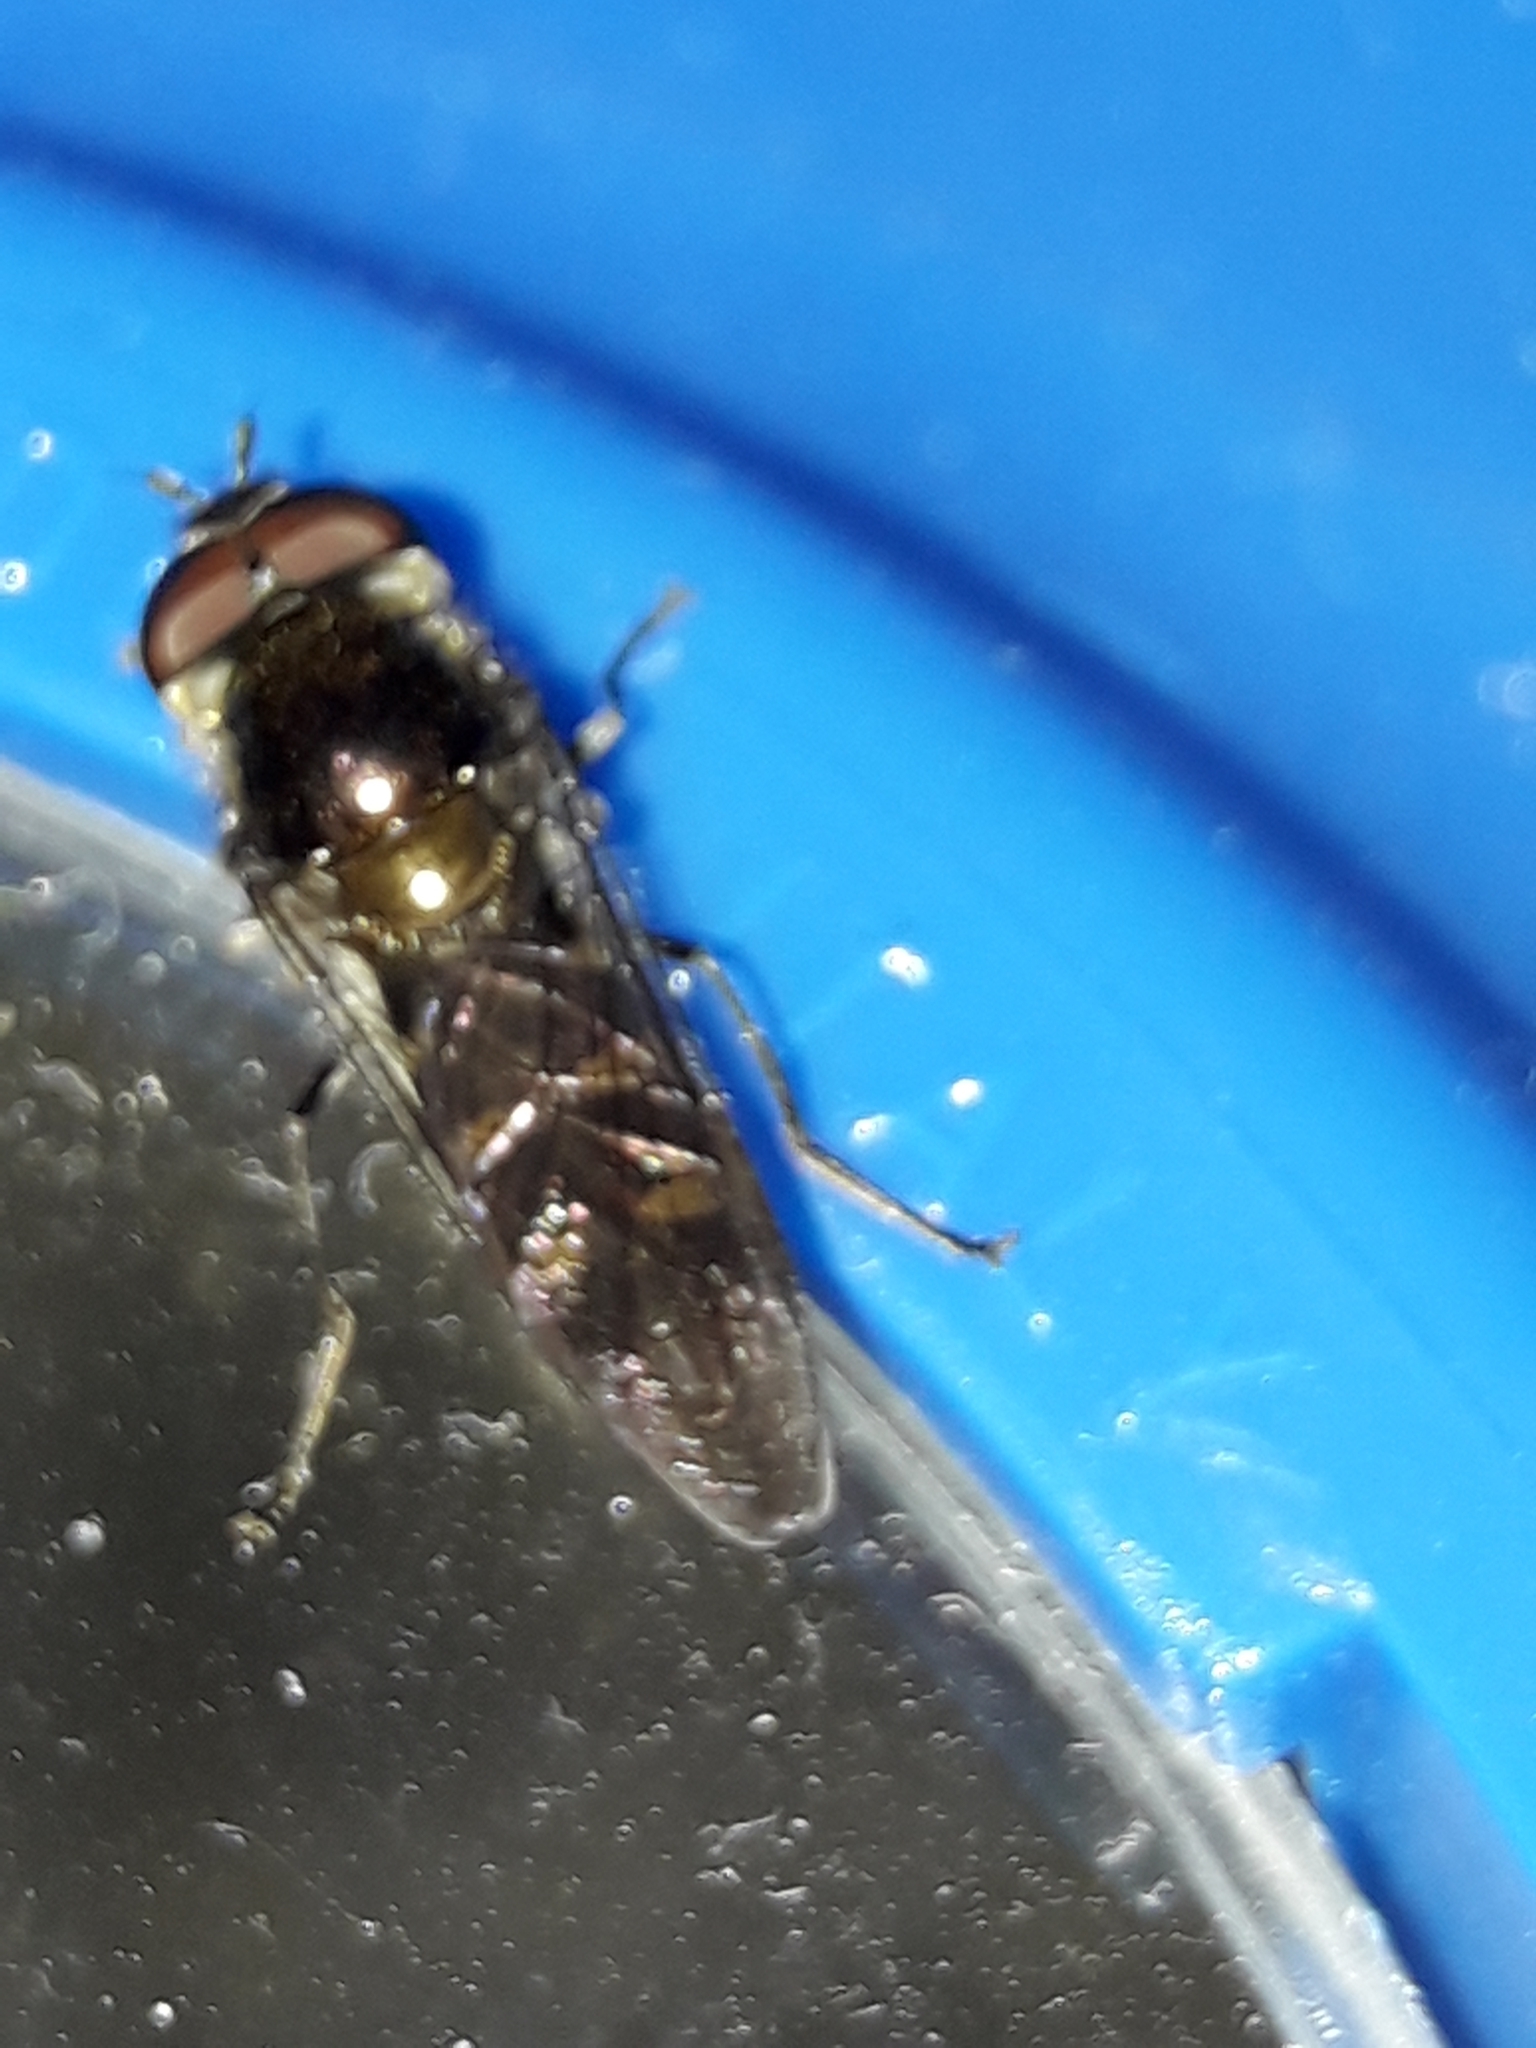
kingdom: Animalia
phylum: Arthropoda
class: Insecta
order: Diptera
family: Syrphidae
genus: Melangyna
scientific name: Melangyna novaezelandiae
